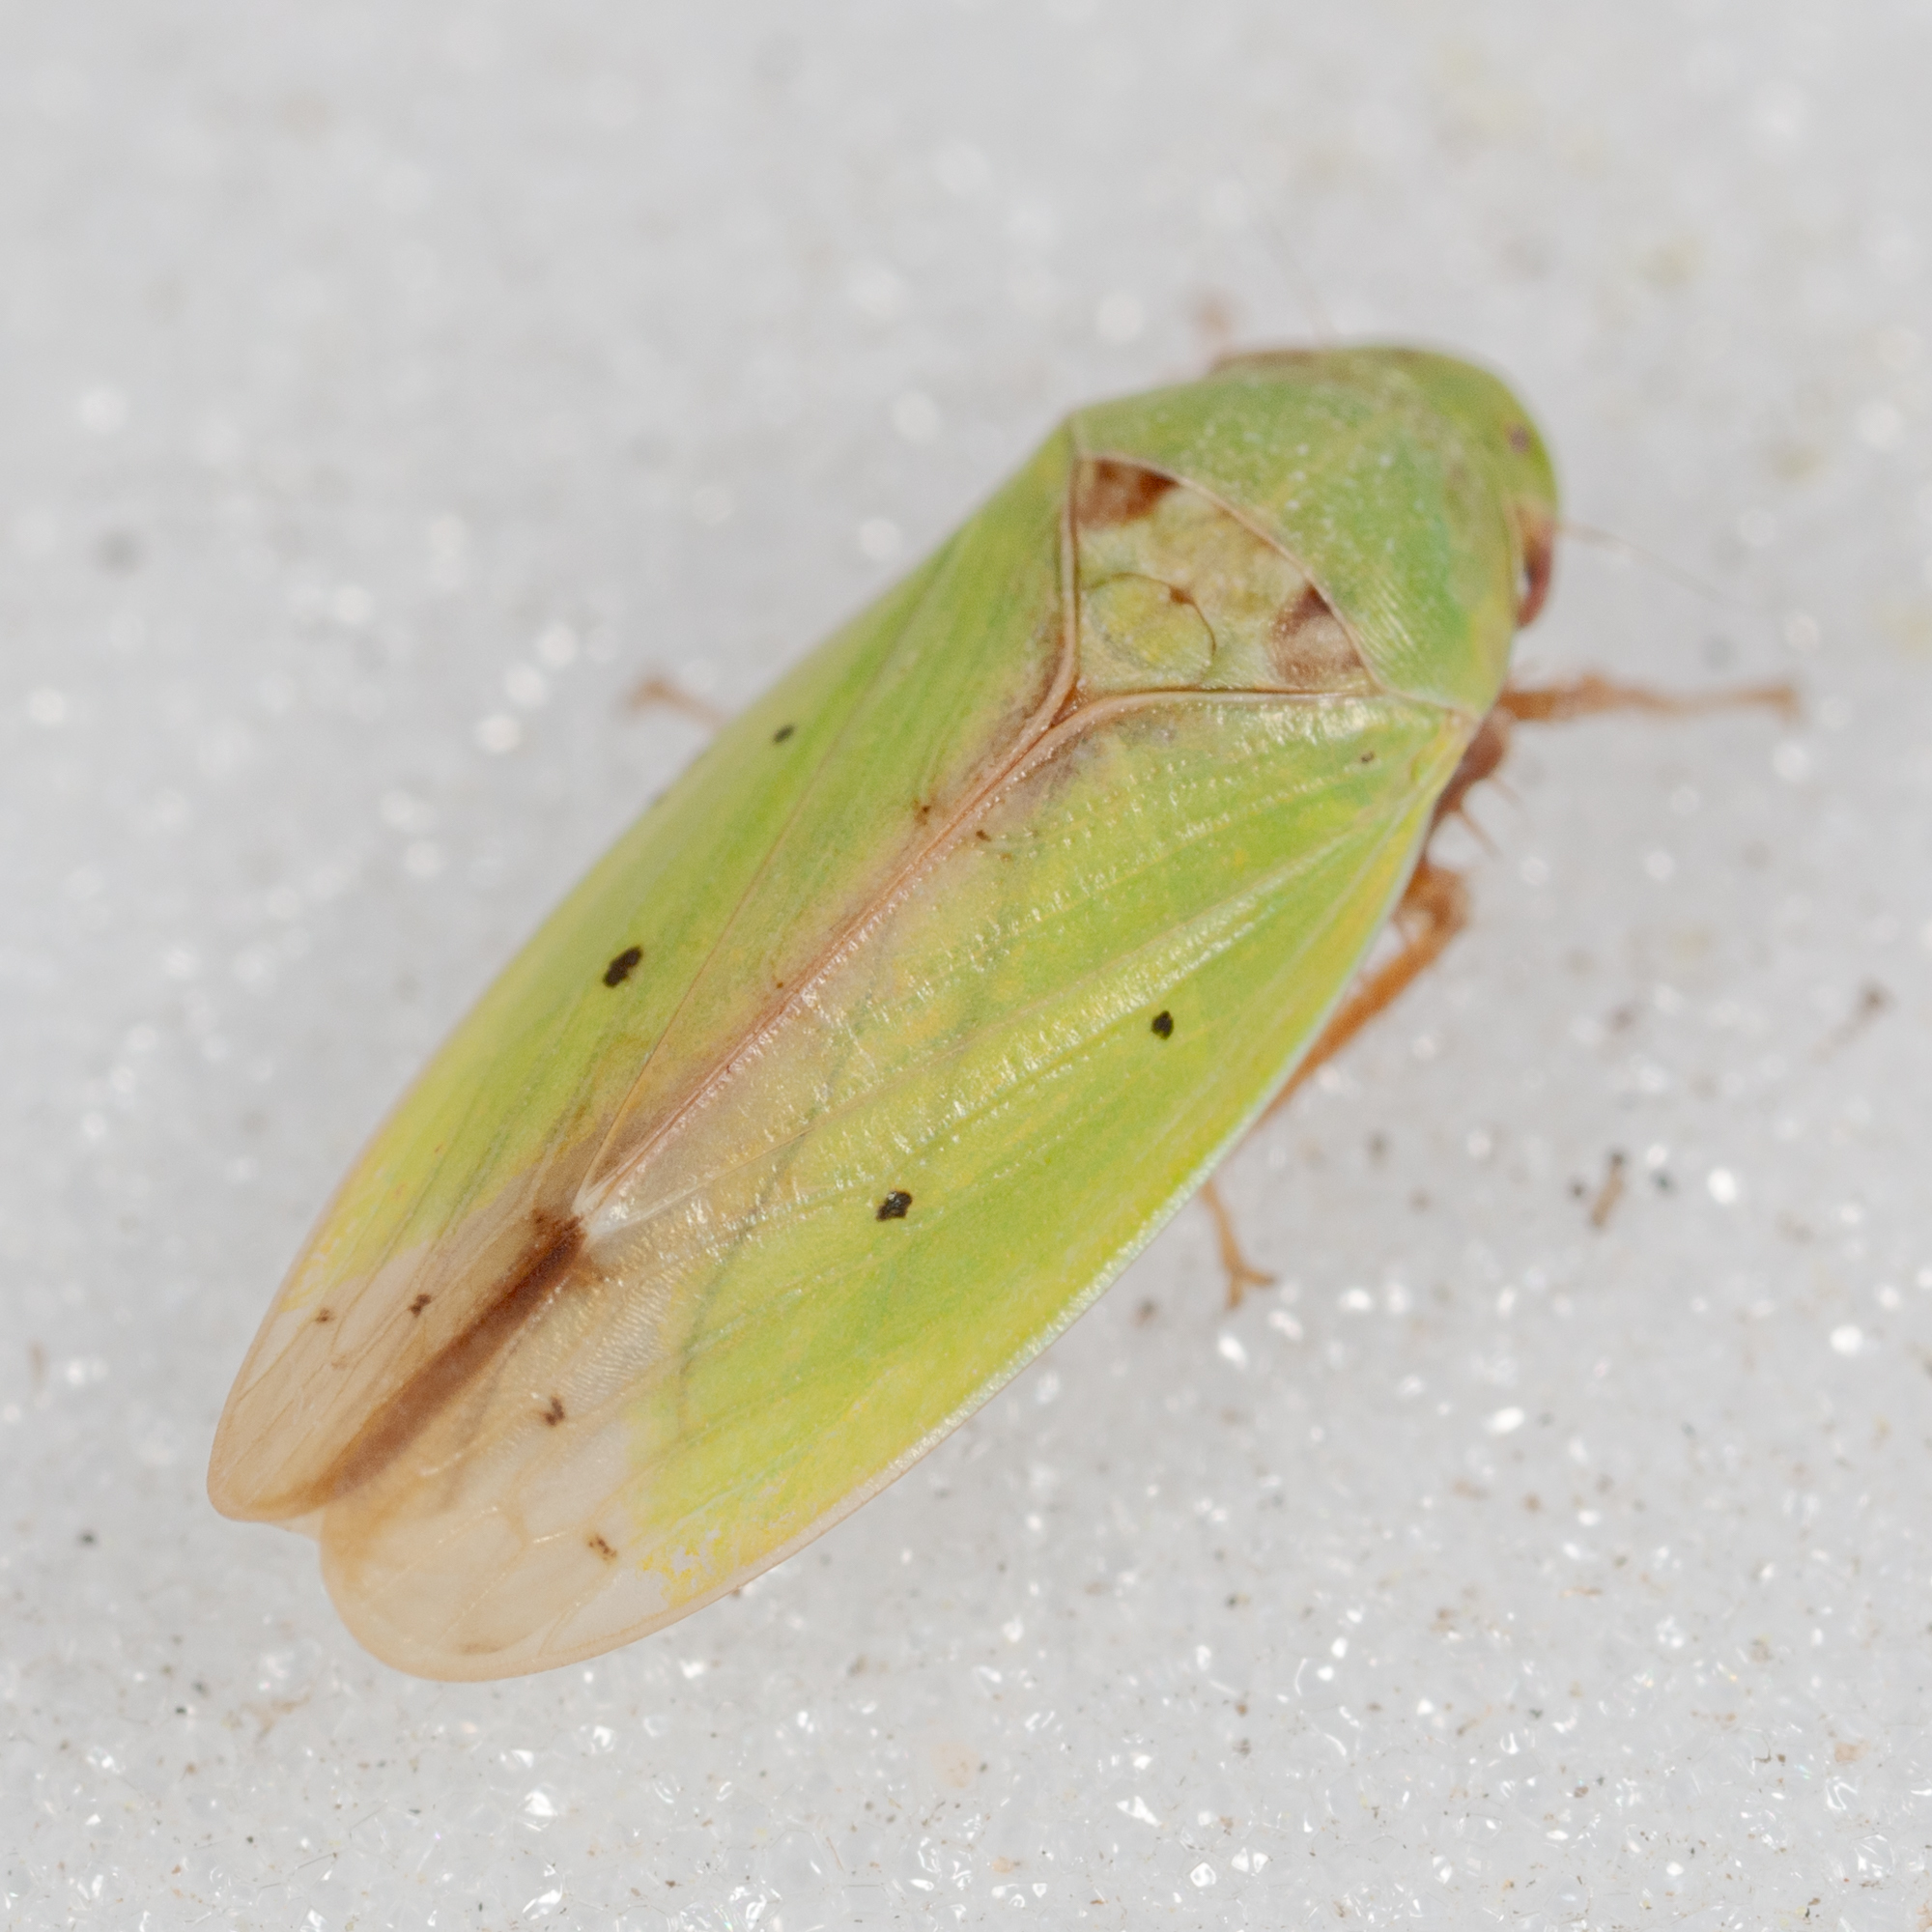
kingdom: Animalia
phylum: Arthropoda
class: Insecta
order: Hemiptera
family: Cicadellidae
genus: Ponana
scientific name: Ponana
